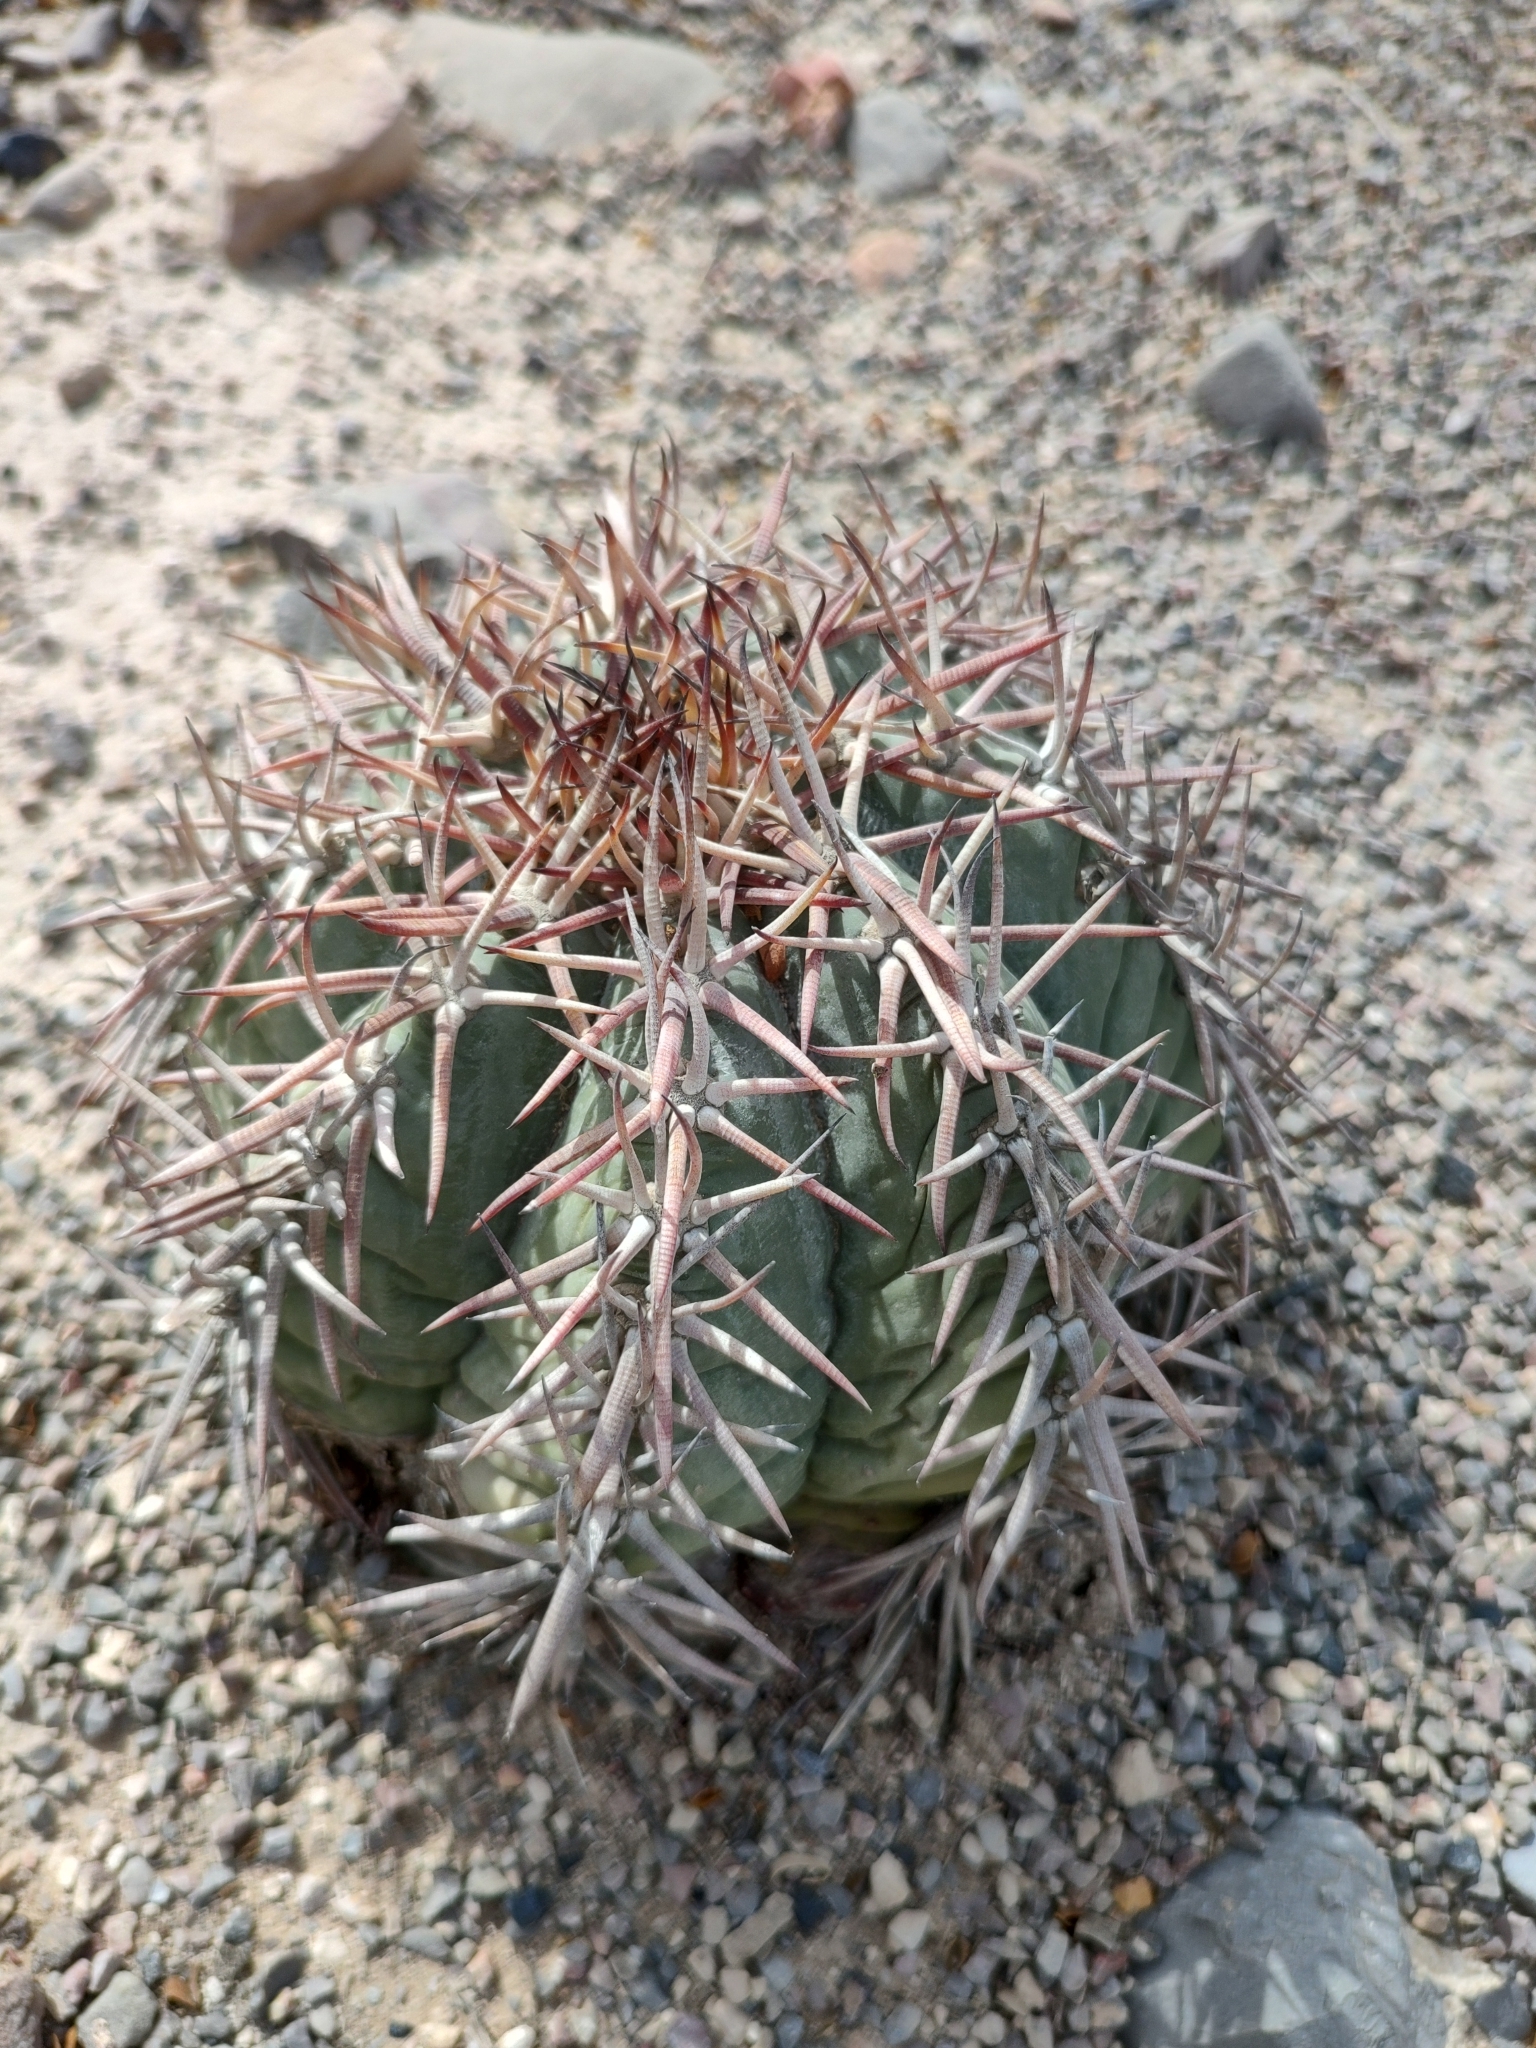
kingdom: Plantae
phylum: Tracheophyta
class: Magnoliopsida
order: Caryophyllales
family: Cactaceae
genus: Echinocactus
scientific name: Echinocactus horizonthalonius
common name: Devilshead
